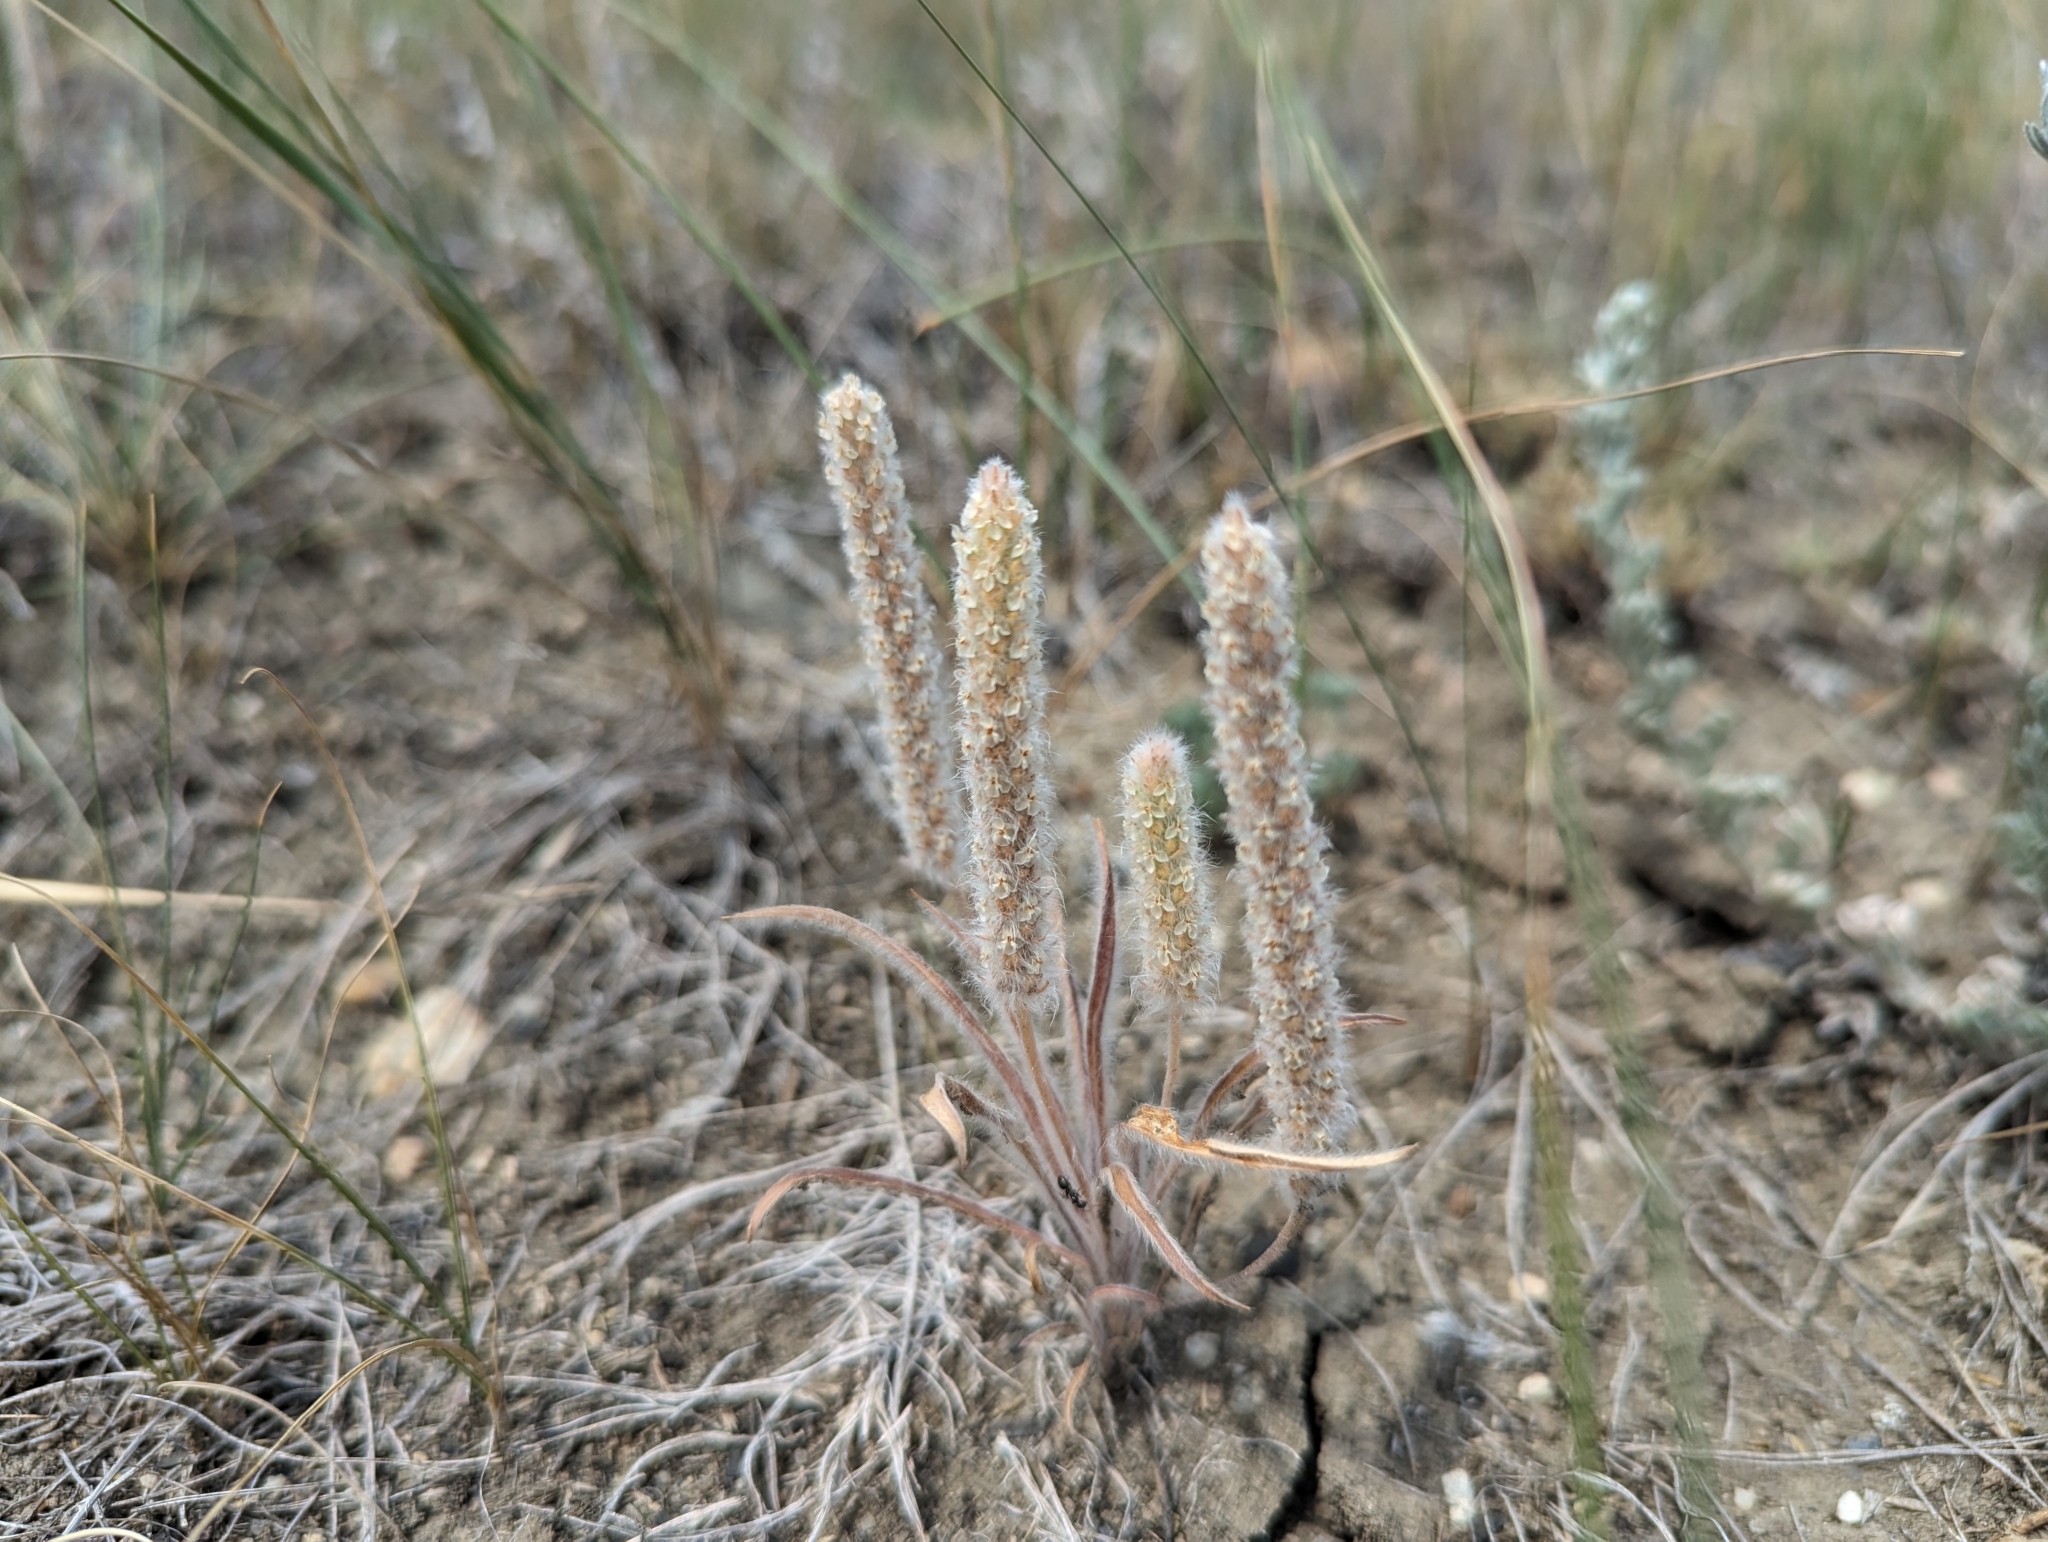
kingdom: Plantae
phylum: Tracheophyta
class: Magnoliopsida
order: Lamiales
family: Plantaginaceae
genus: Plantago
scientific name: Plantago patagonica
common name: Patagonia indian-wheat
